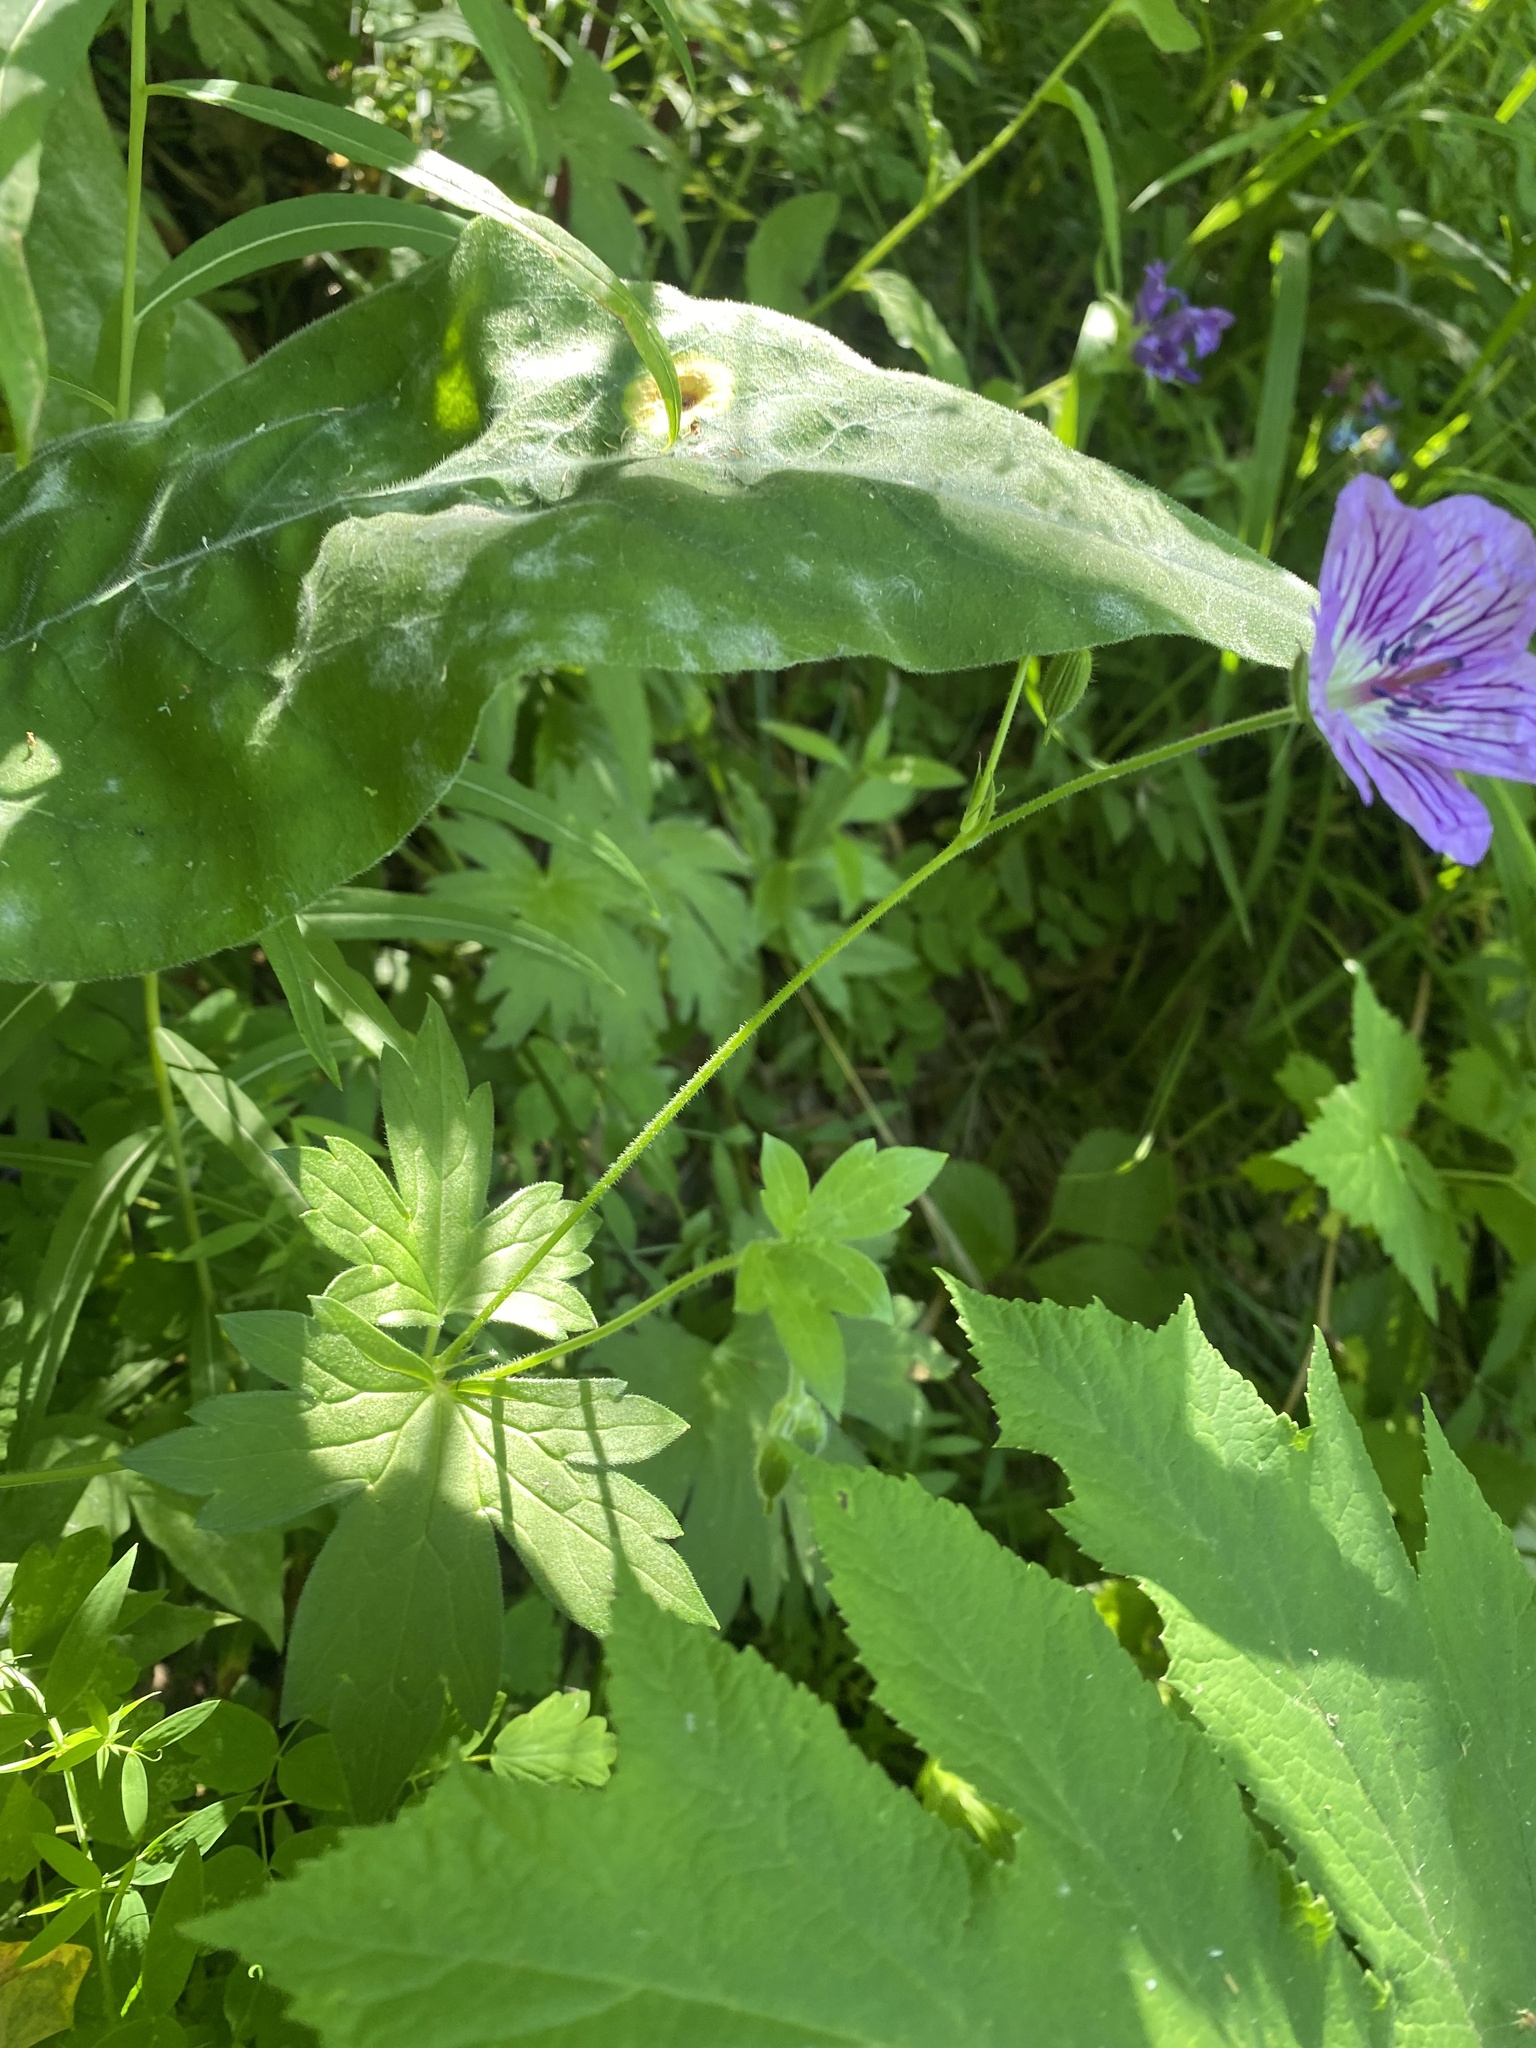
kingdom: Plantae
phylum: Tracheophyta
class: Magnoliopsida
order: Geraniales
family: Geraniaceae
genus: Geranium
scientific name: Geranium wlassovianum
